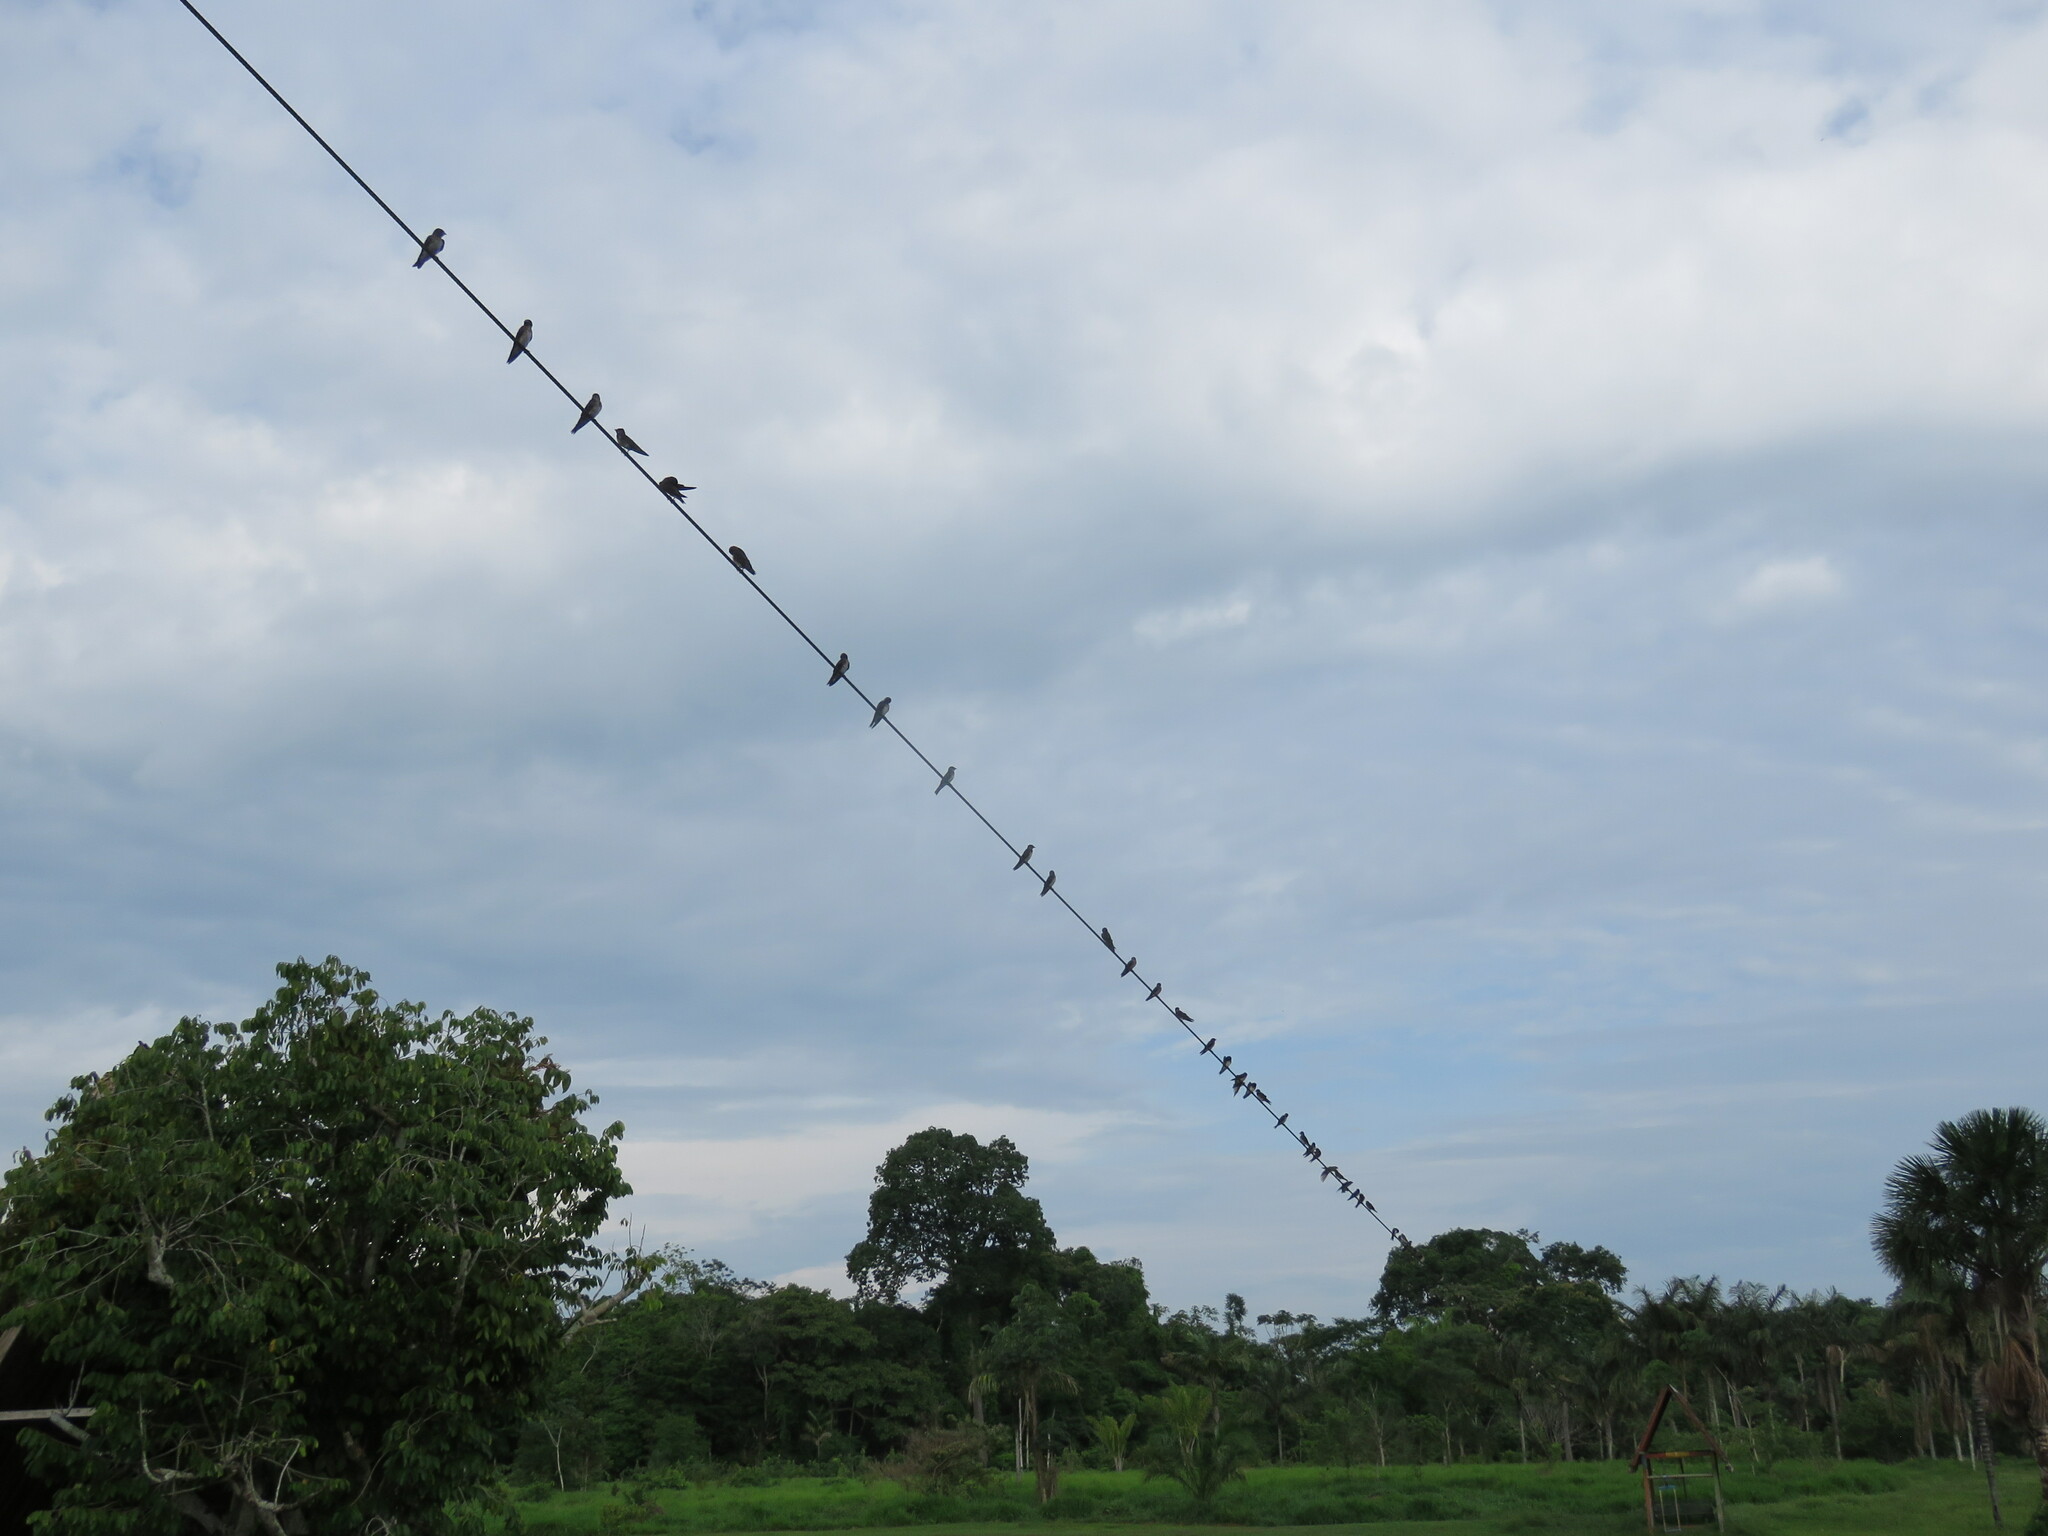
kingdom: Animalia
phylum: Chordata
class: Aves
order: Passeriformes
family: Hirundinidae
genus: Progne
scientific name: Progne chalybea
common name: Grey-breasted martin
